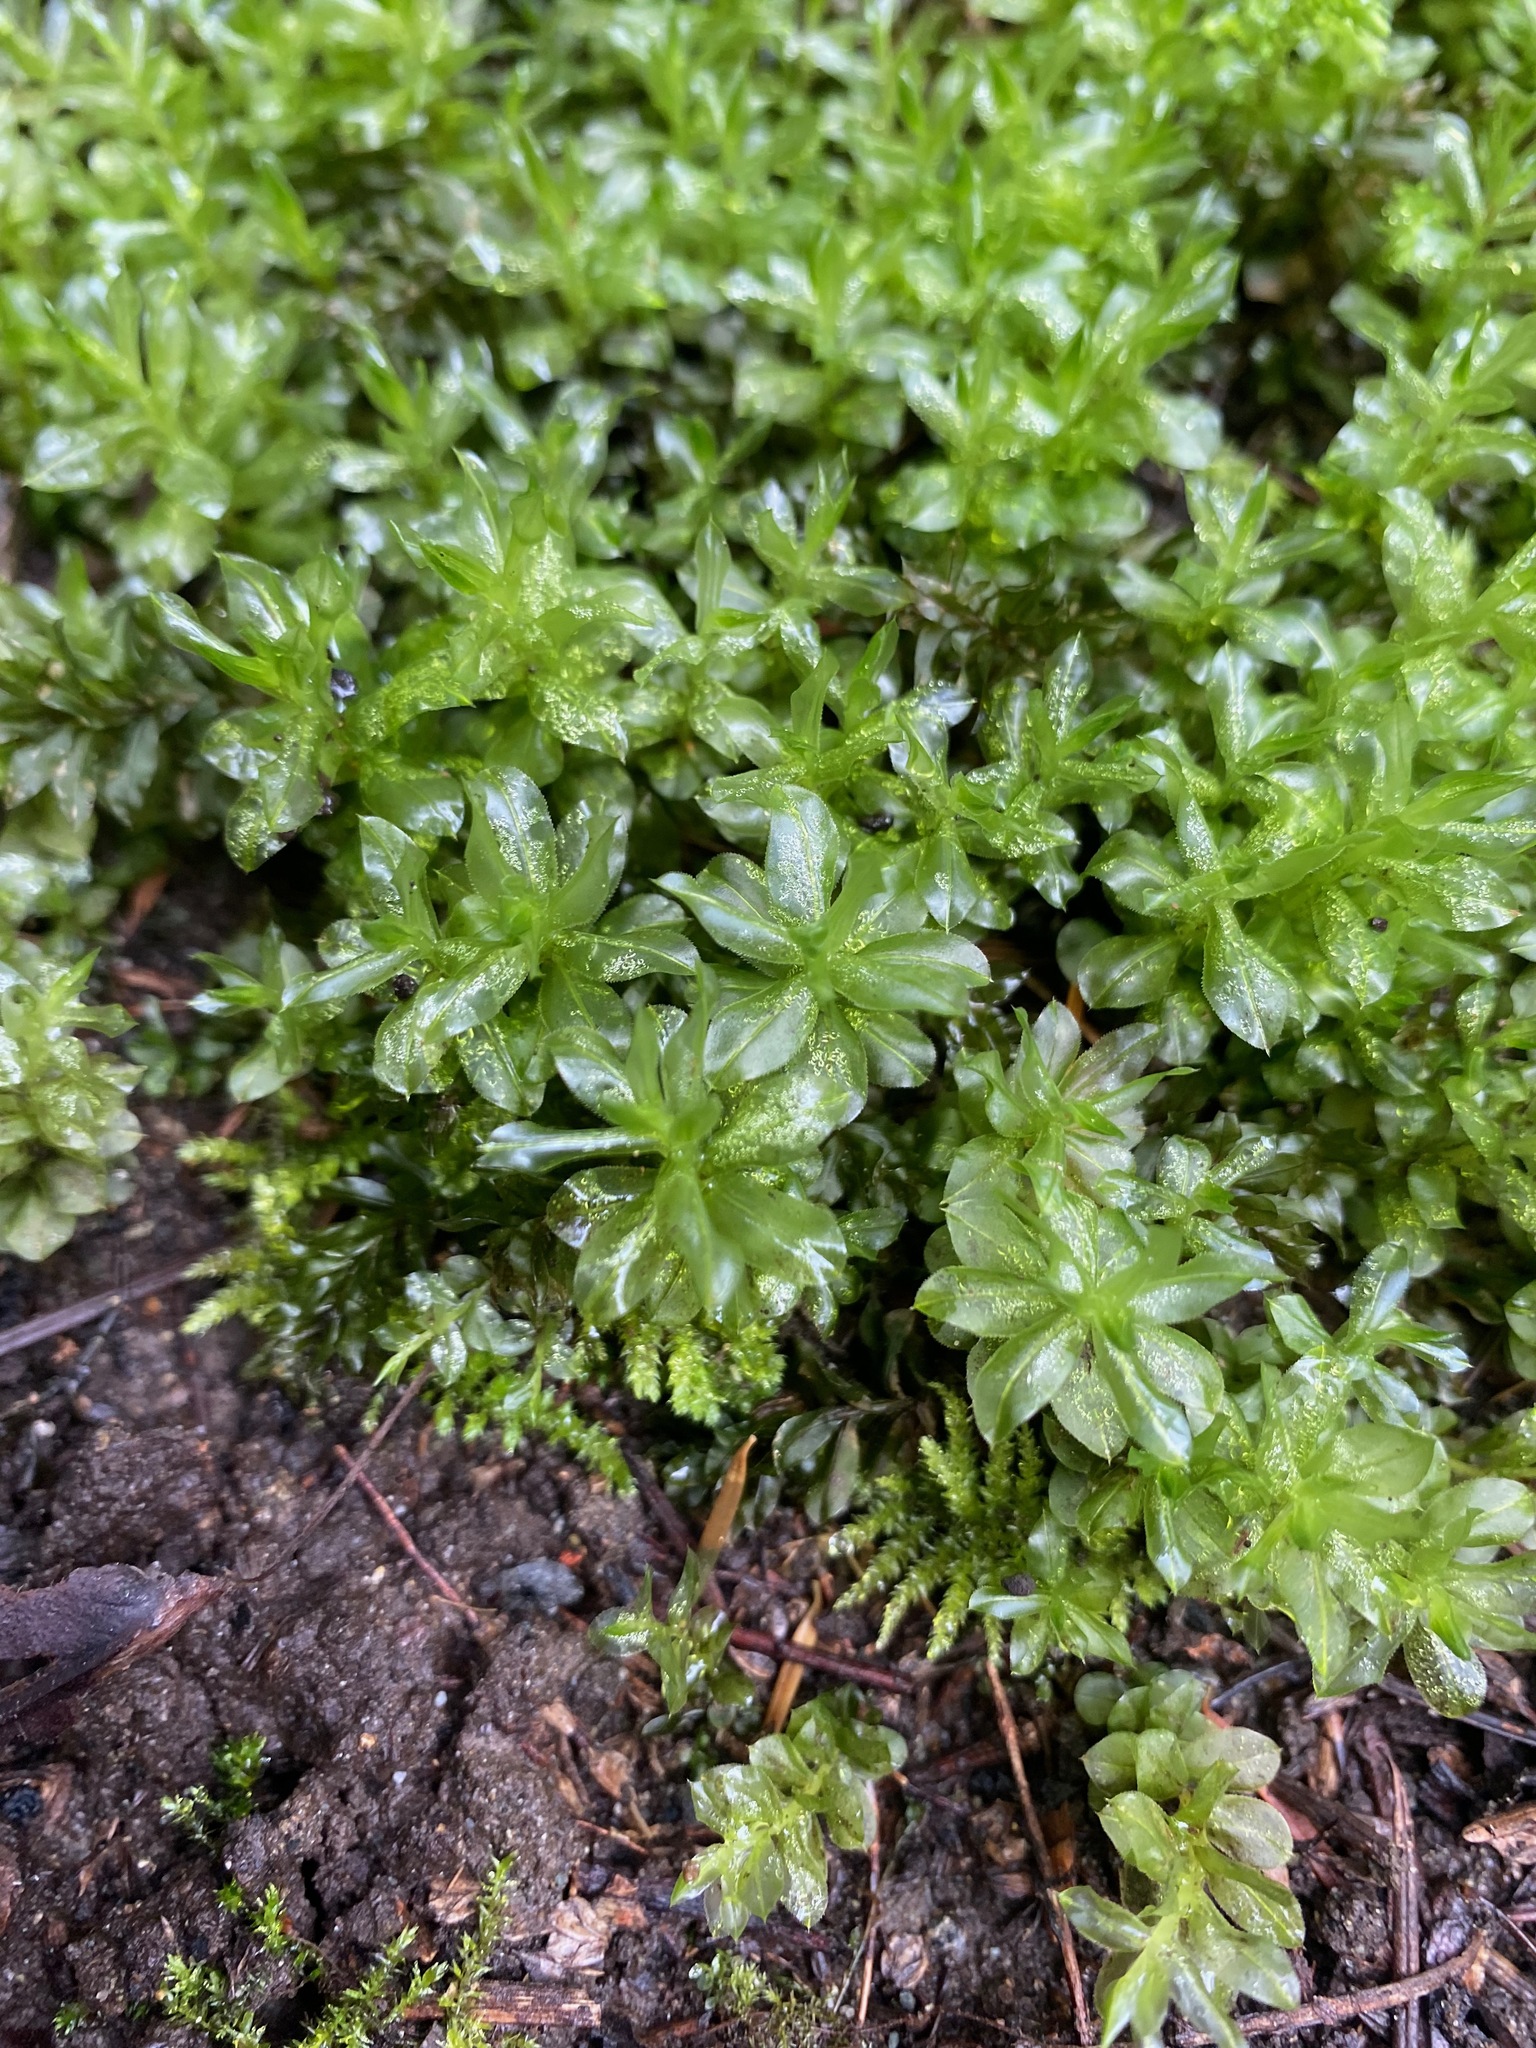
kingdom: Plantae
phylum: Bryophyta
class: Bryopsida
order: Bryales
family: Mniaceae
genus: Plagiomnium
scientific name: Plagiomnium insigne
